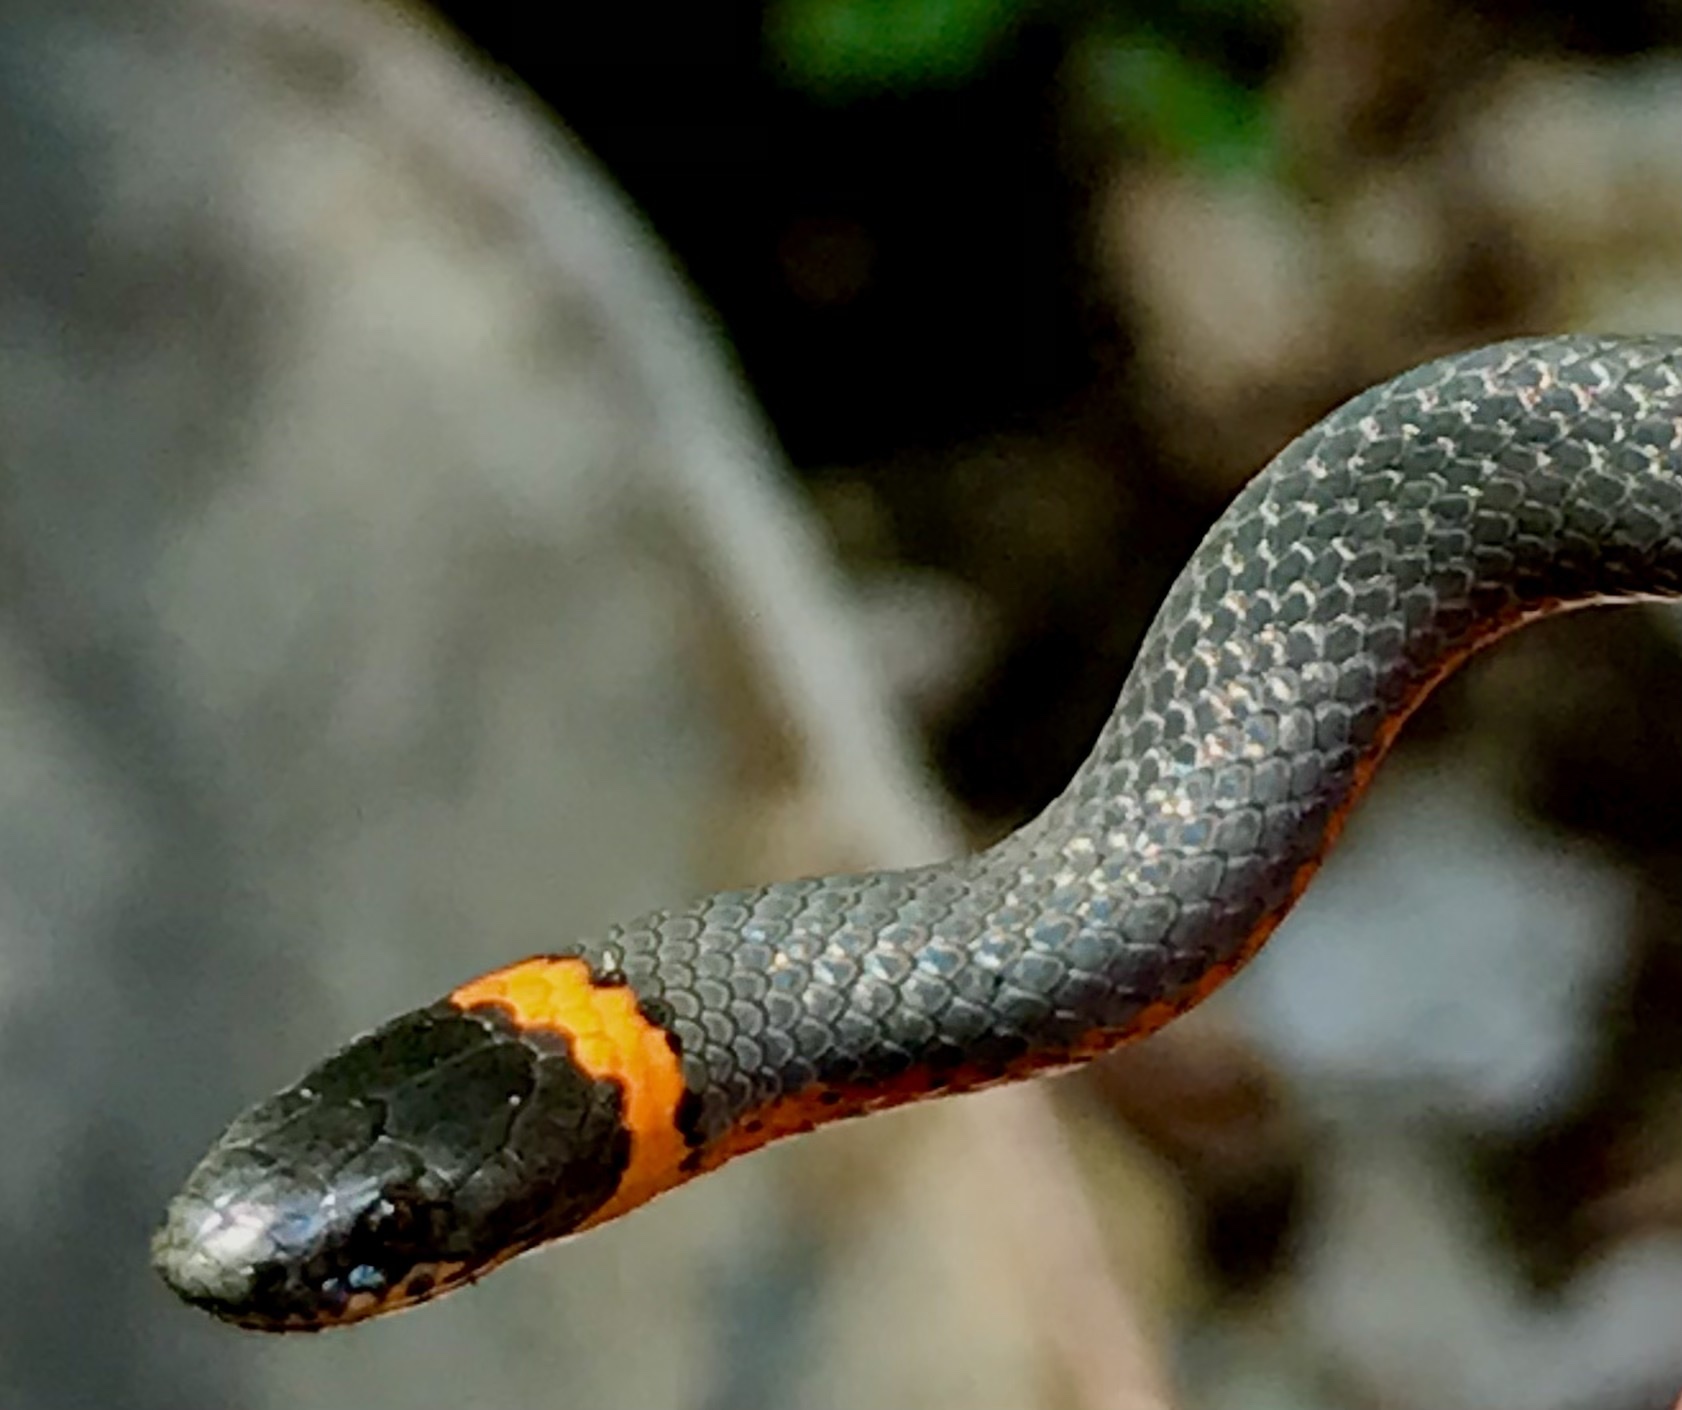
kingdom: Animalia
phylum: Chordata
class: Squamata
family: Colubridae
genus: Diadophis
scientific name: Diadophis punctatus
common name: Ringneck snake
